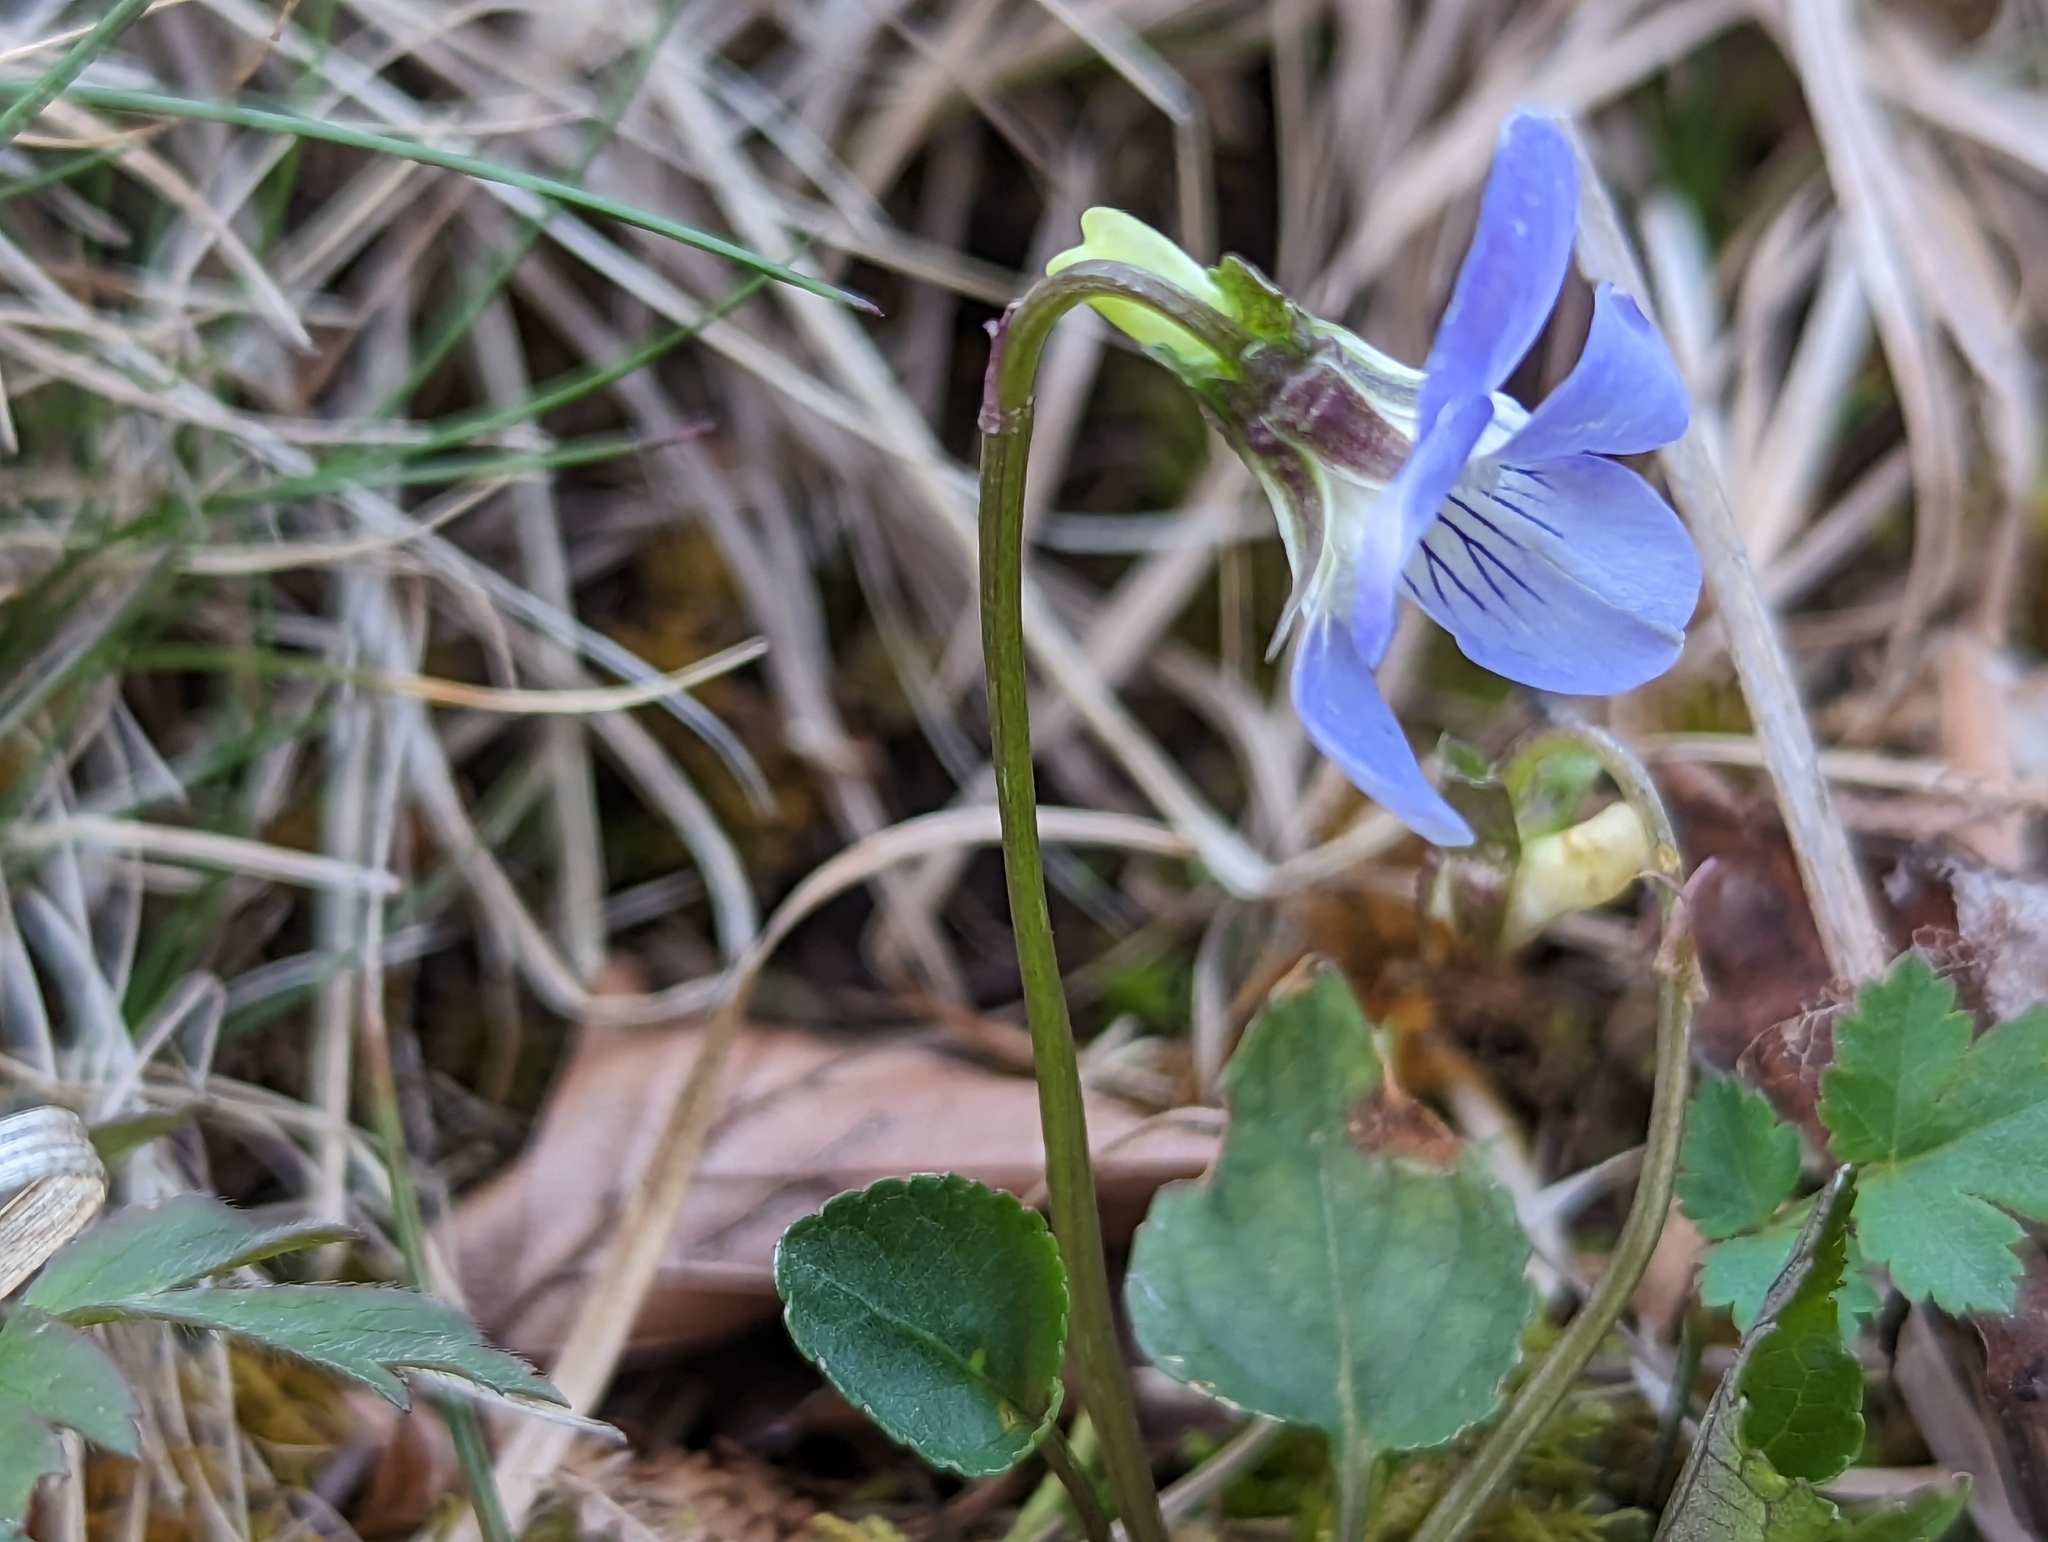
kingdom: Plantae
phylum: Tracheophyta
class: Magnoliopsida
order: Malpighiales
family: Violaceae
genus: Viola
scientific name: Viola canina
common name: Heath dog-violet
